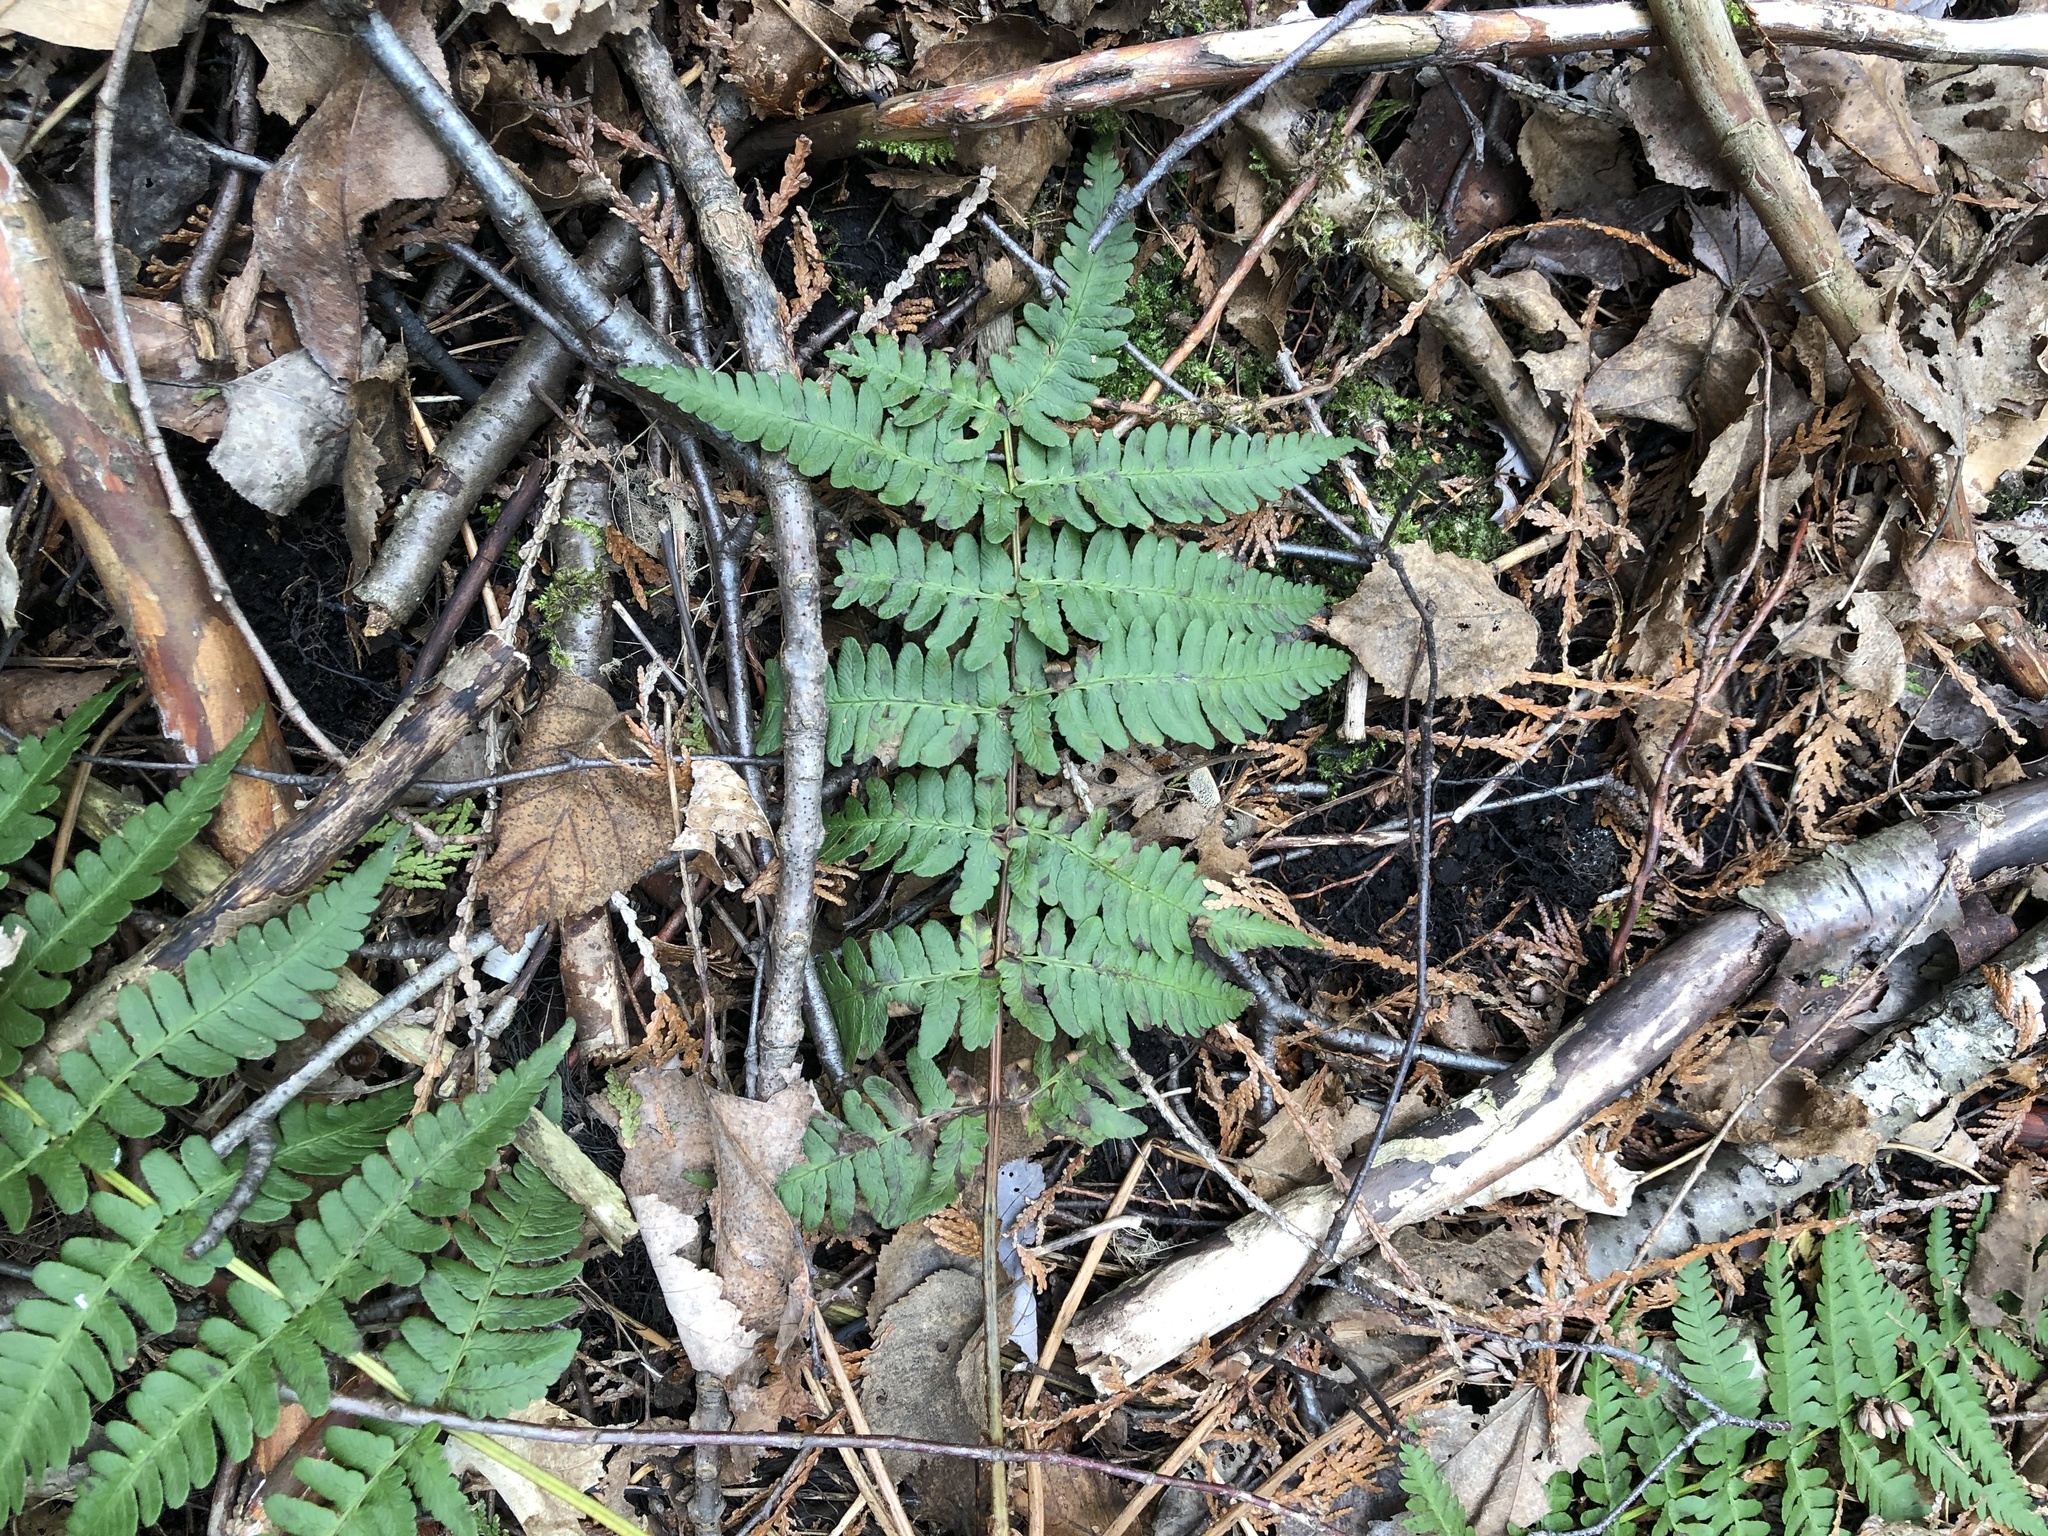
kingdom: Plantae
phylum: Tracheophyta
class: Polypodiopsida
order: Polypodiales
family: Dryopteridaceae
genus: Dryopteris
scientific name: Dryopteris marginalis
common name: Marginal wood fern
